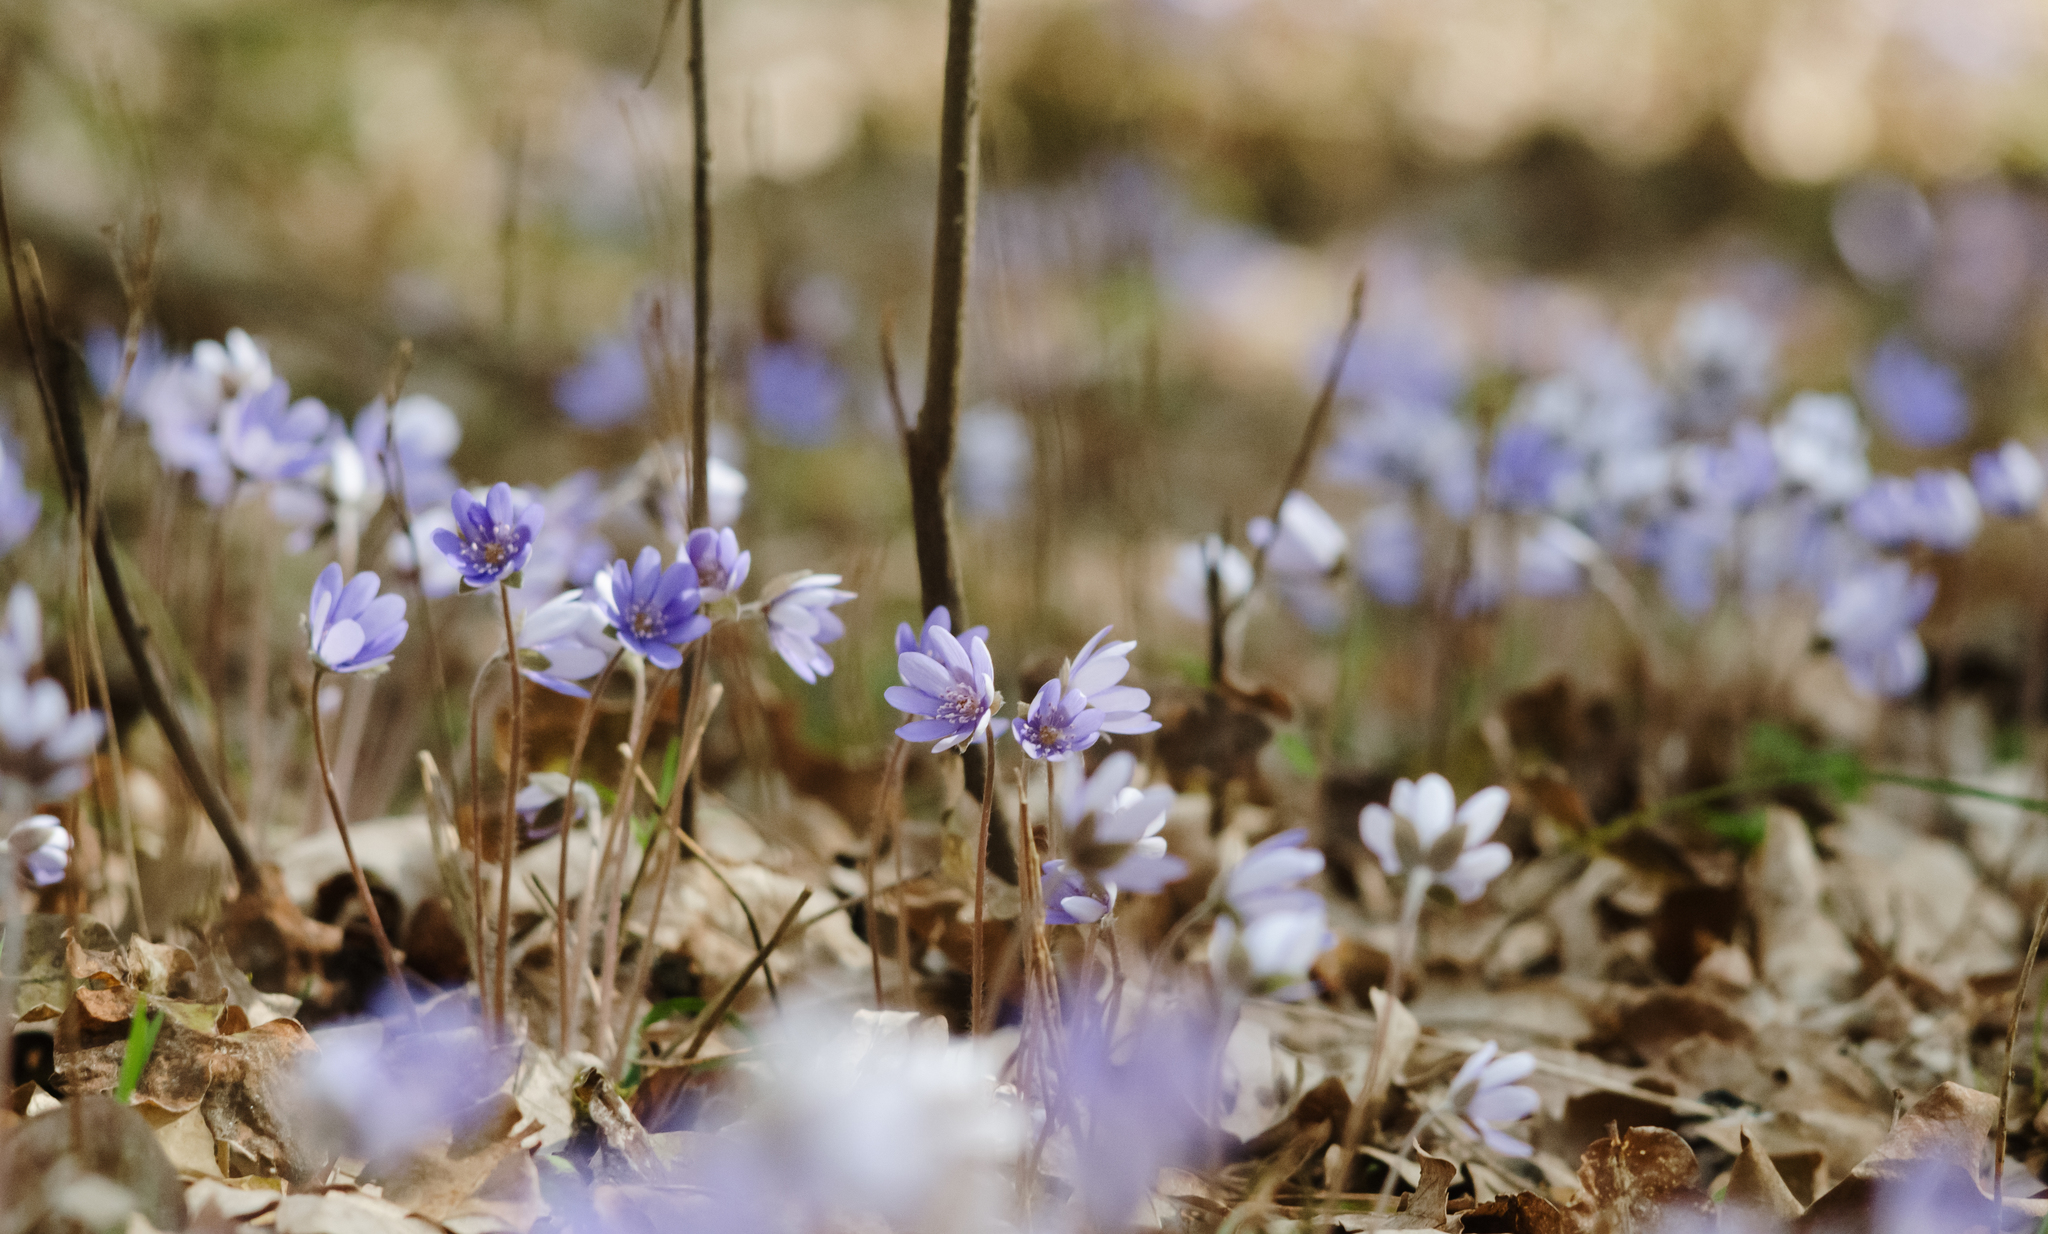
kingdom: Plantae
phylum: Tracheophyta
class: Magnoliopsida
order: Ranunculales
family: Ranunculaceae
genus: Hepatica
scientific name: Hepatica nobilis
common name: Liverleaf
